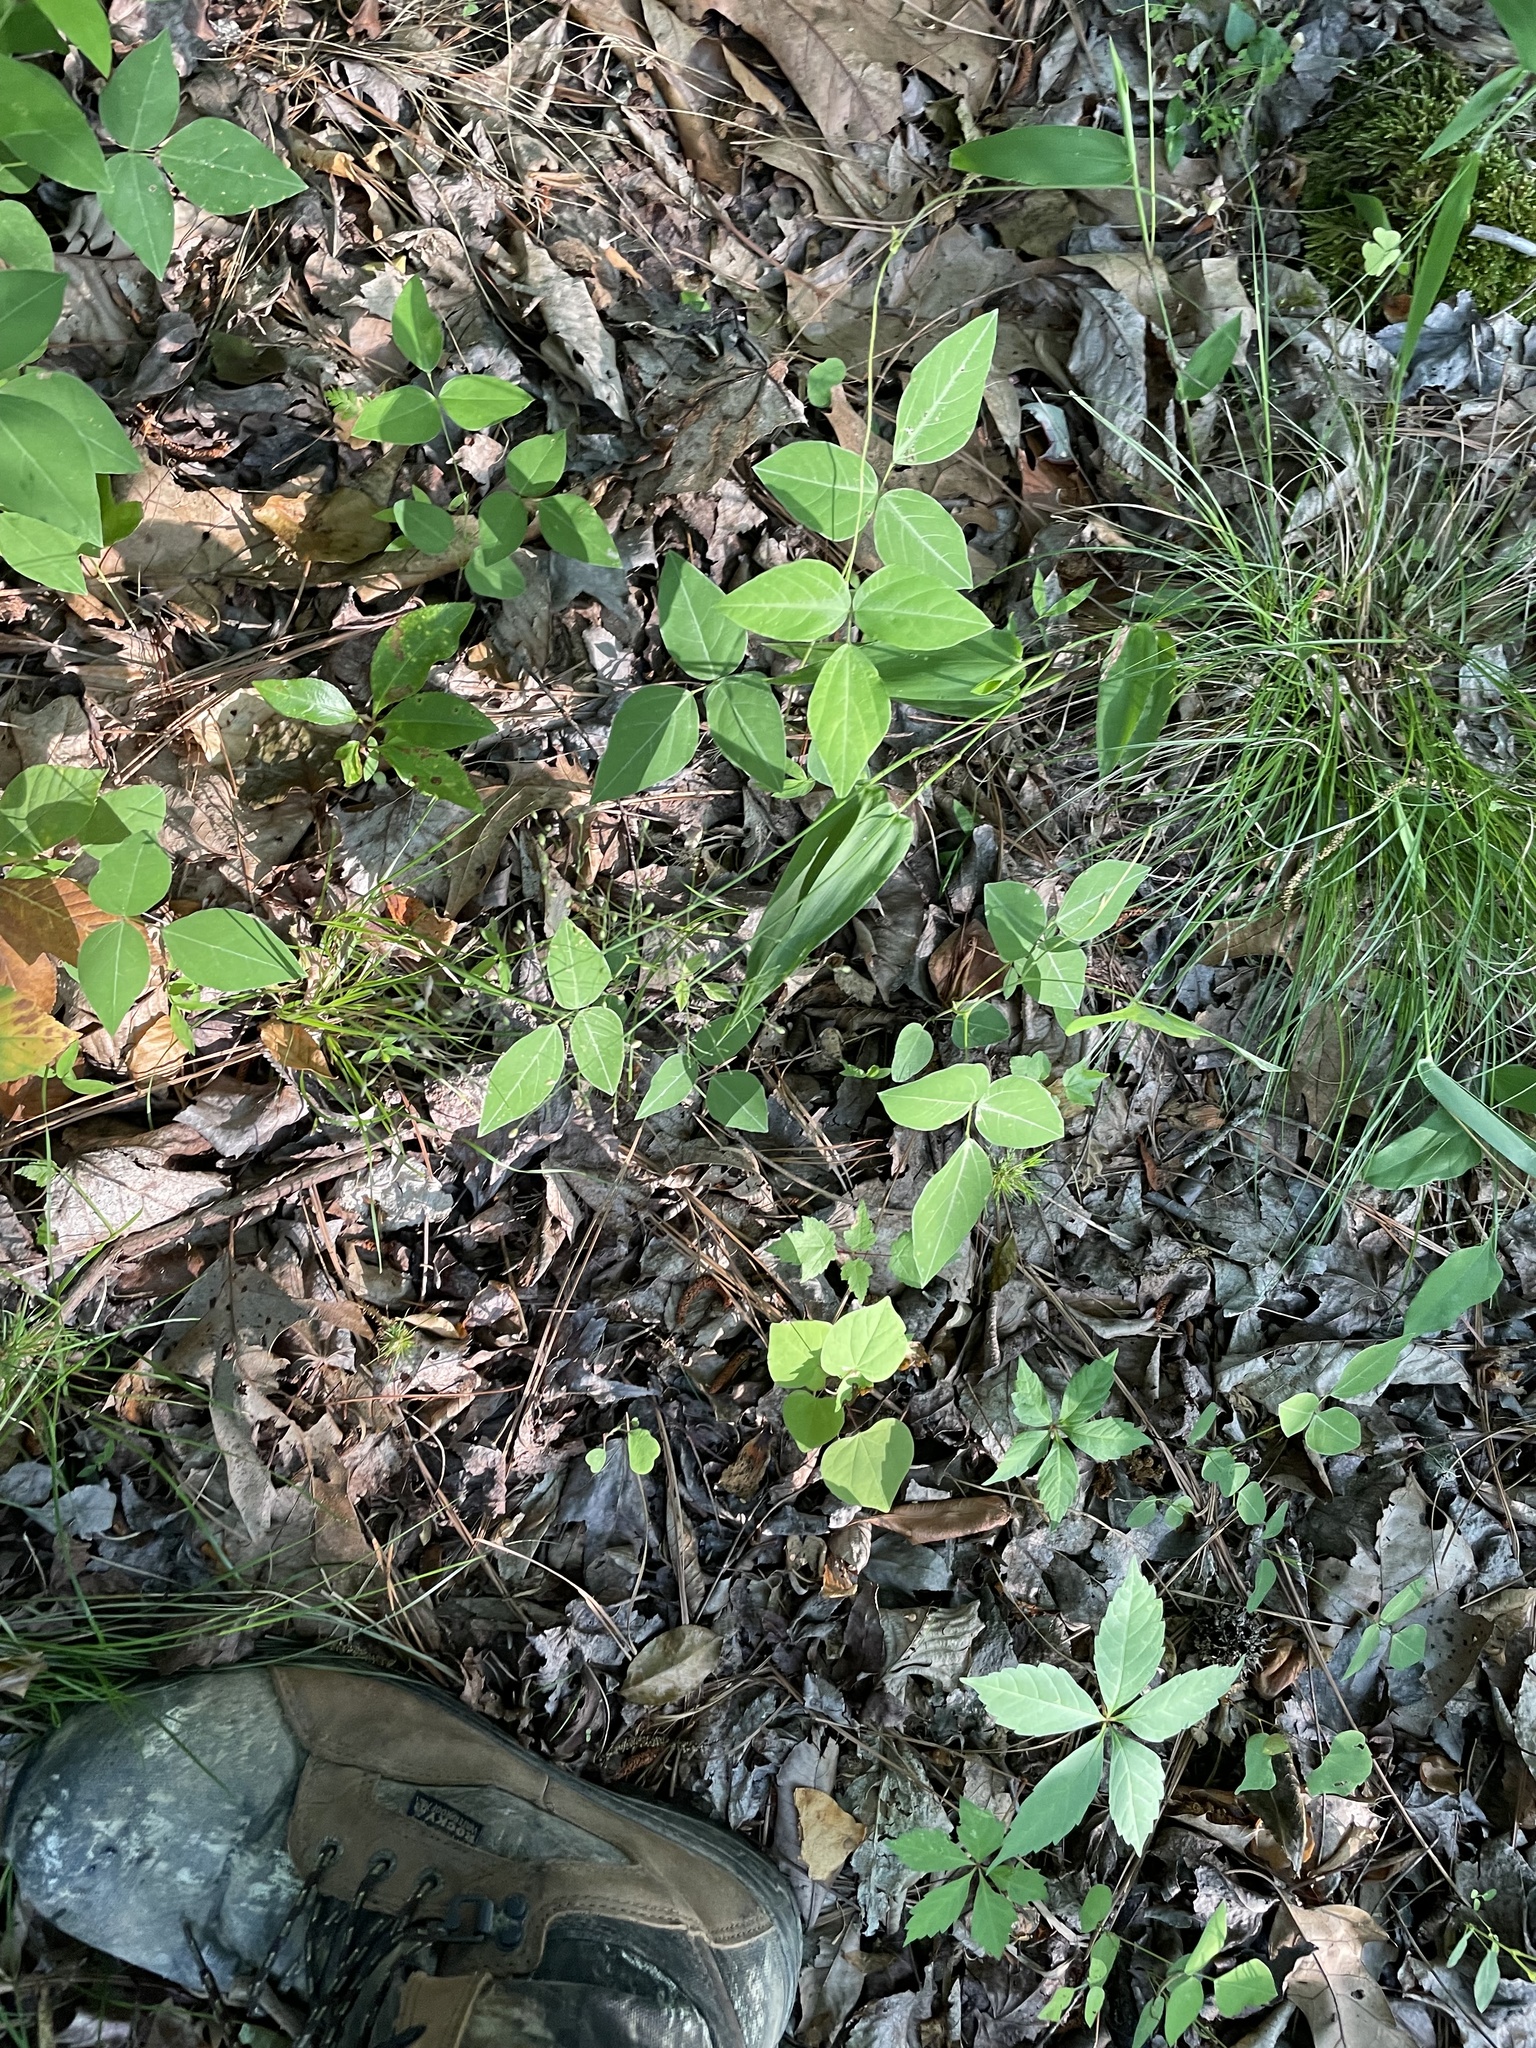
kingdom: Plantae
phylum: Tracheophyta
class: Magnoliopsida
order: Fabales
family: Fabaceae
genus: Amphicarpaea
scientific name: Amphicarpaea bracteata
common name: American hog peanut
